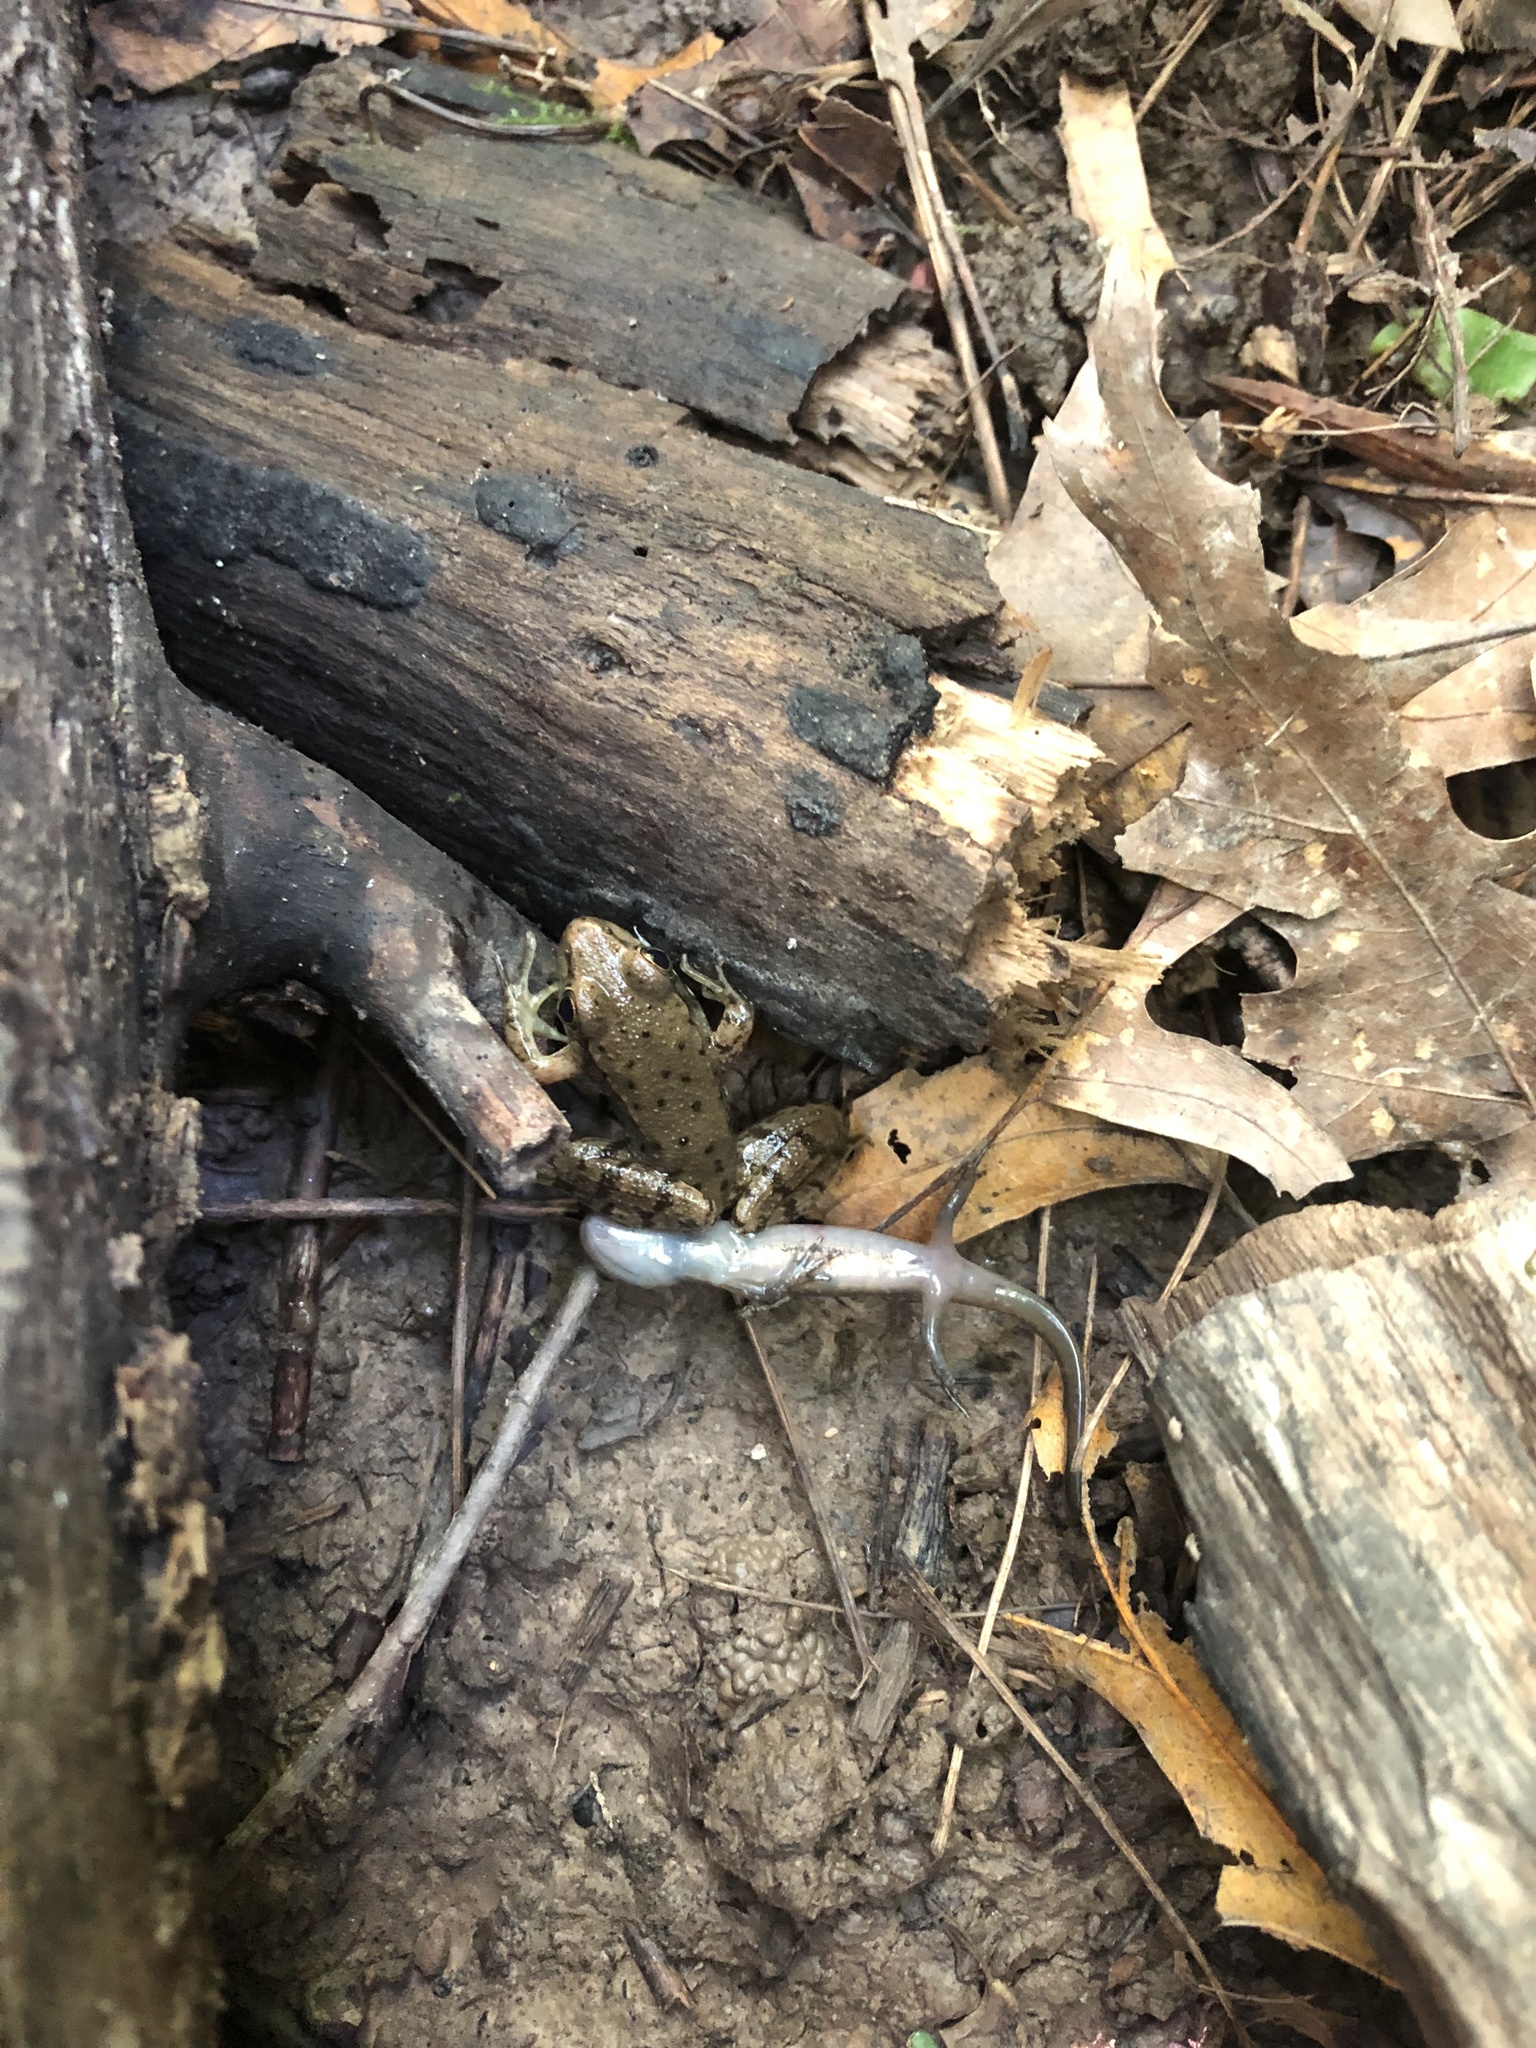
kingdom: Animalia
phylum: Chordata
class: Amphibia
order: Anura
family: Ranidae
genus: Lithobates
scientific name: Lithobates clamitans
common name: Green frog
